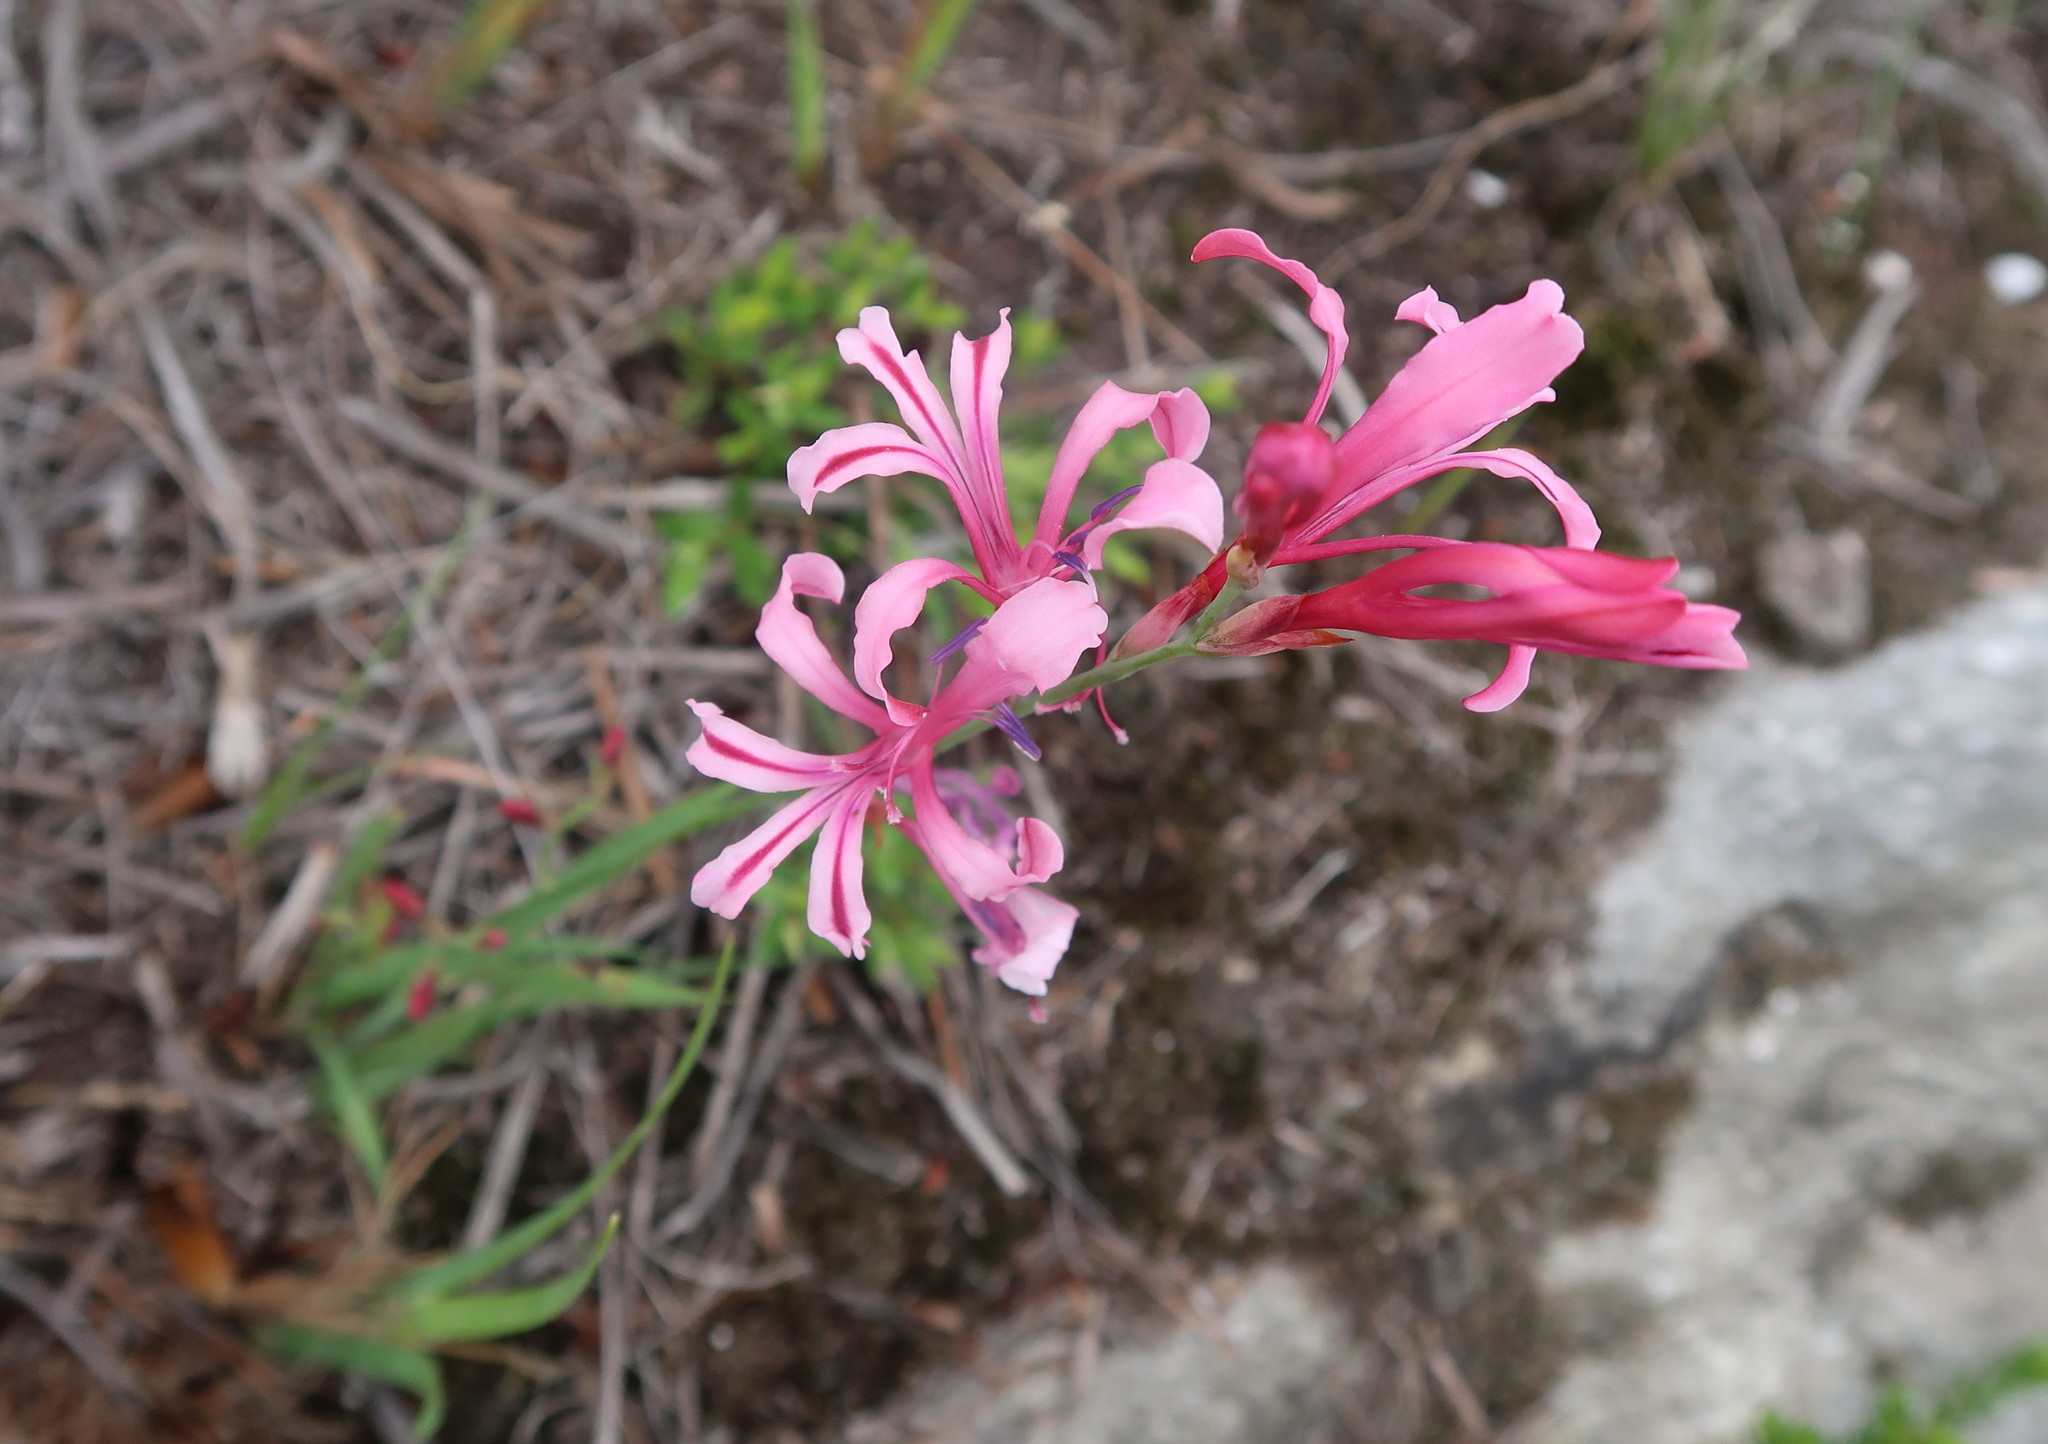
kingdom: Plantae
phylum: Tracheophyta
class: Liliopsida
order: Asparagales
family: Iridaceae
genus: Tritoniopsis
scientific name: Tritoniopsis ramosa
